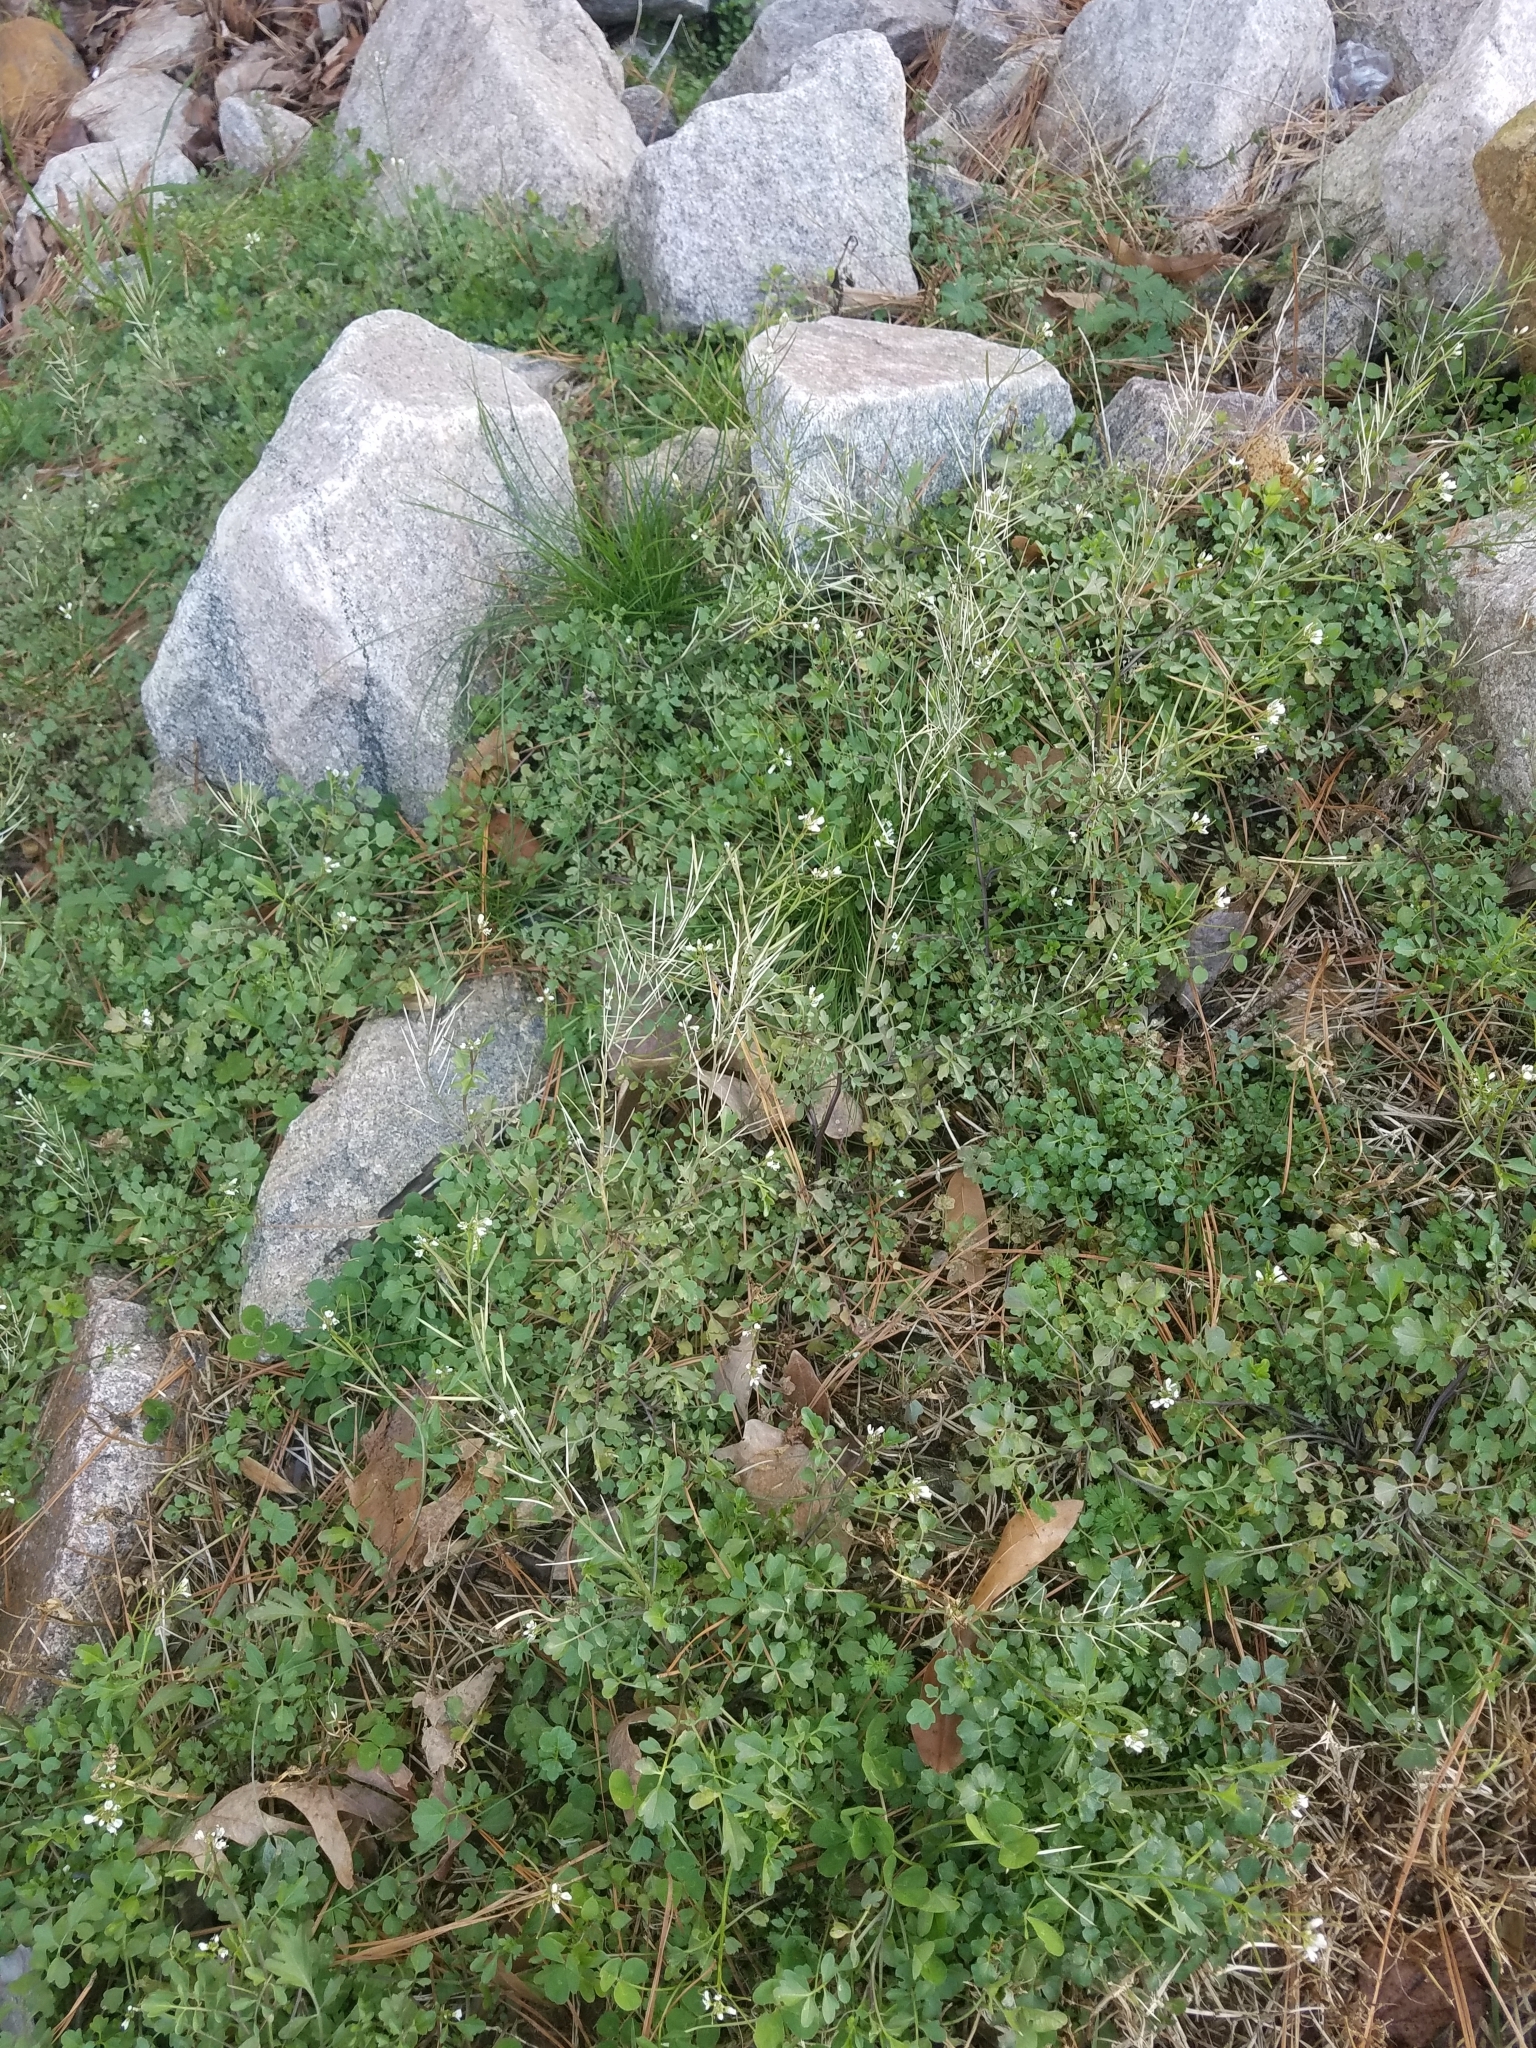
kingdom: Plantae
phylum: Tracheophyta
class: Magnoliopsida
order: Brassicales
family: Brassicaceae
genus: Cardamine
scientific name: Cardamine occulta
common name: Asian wavy bittercress
